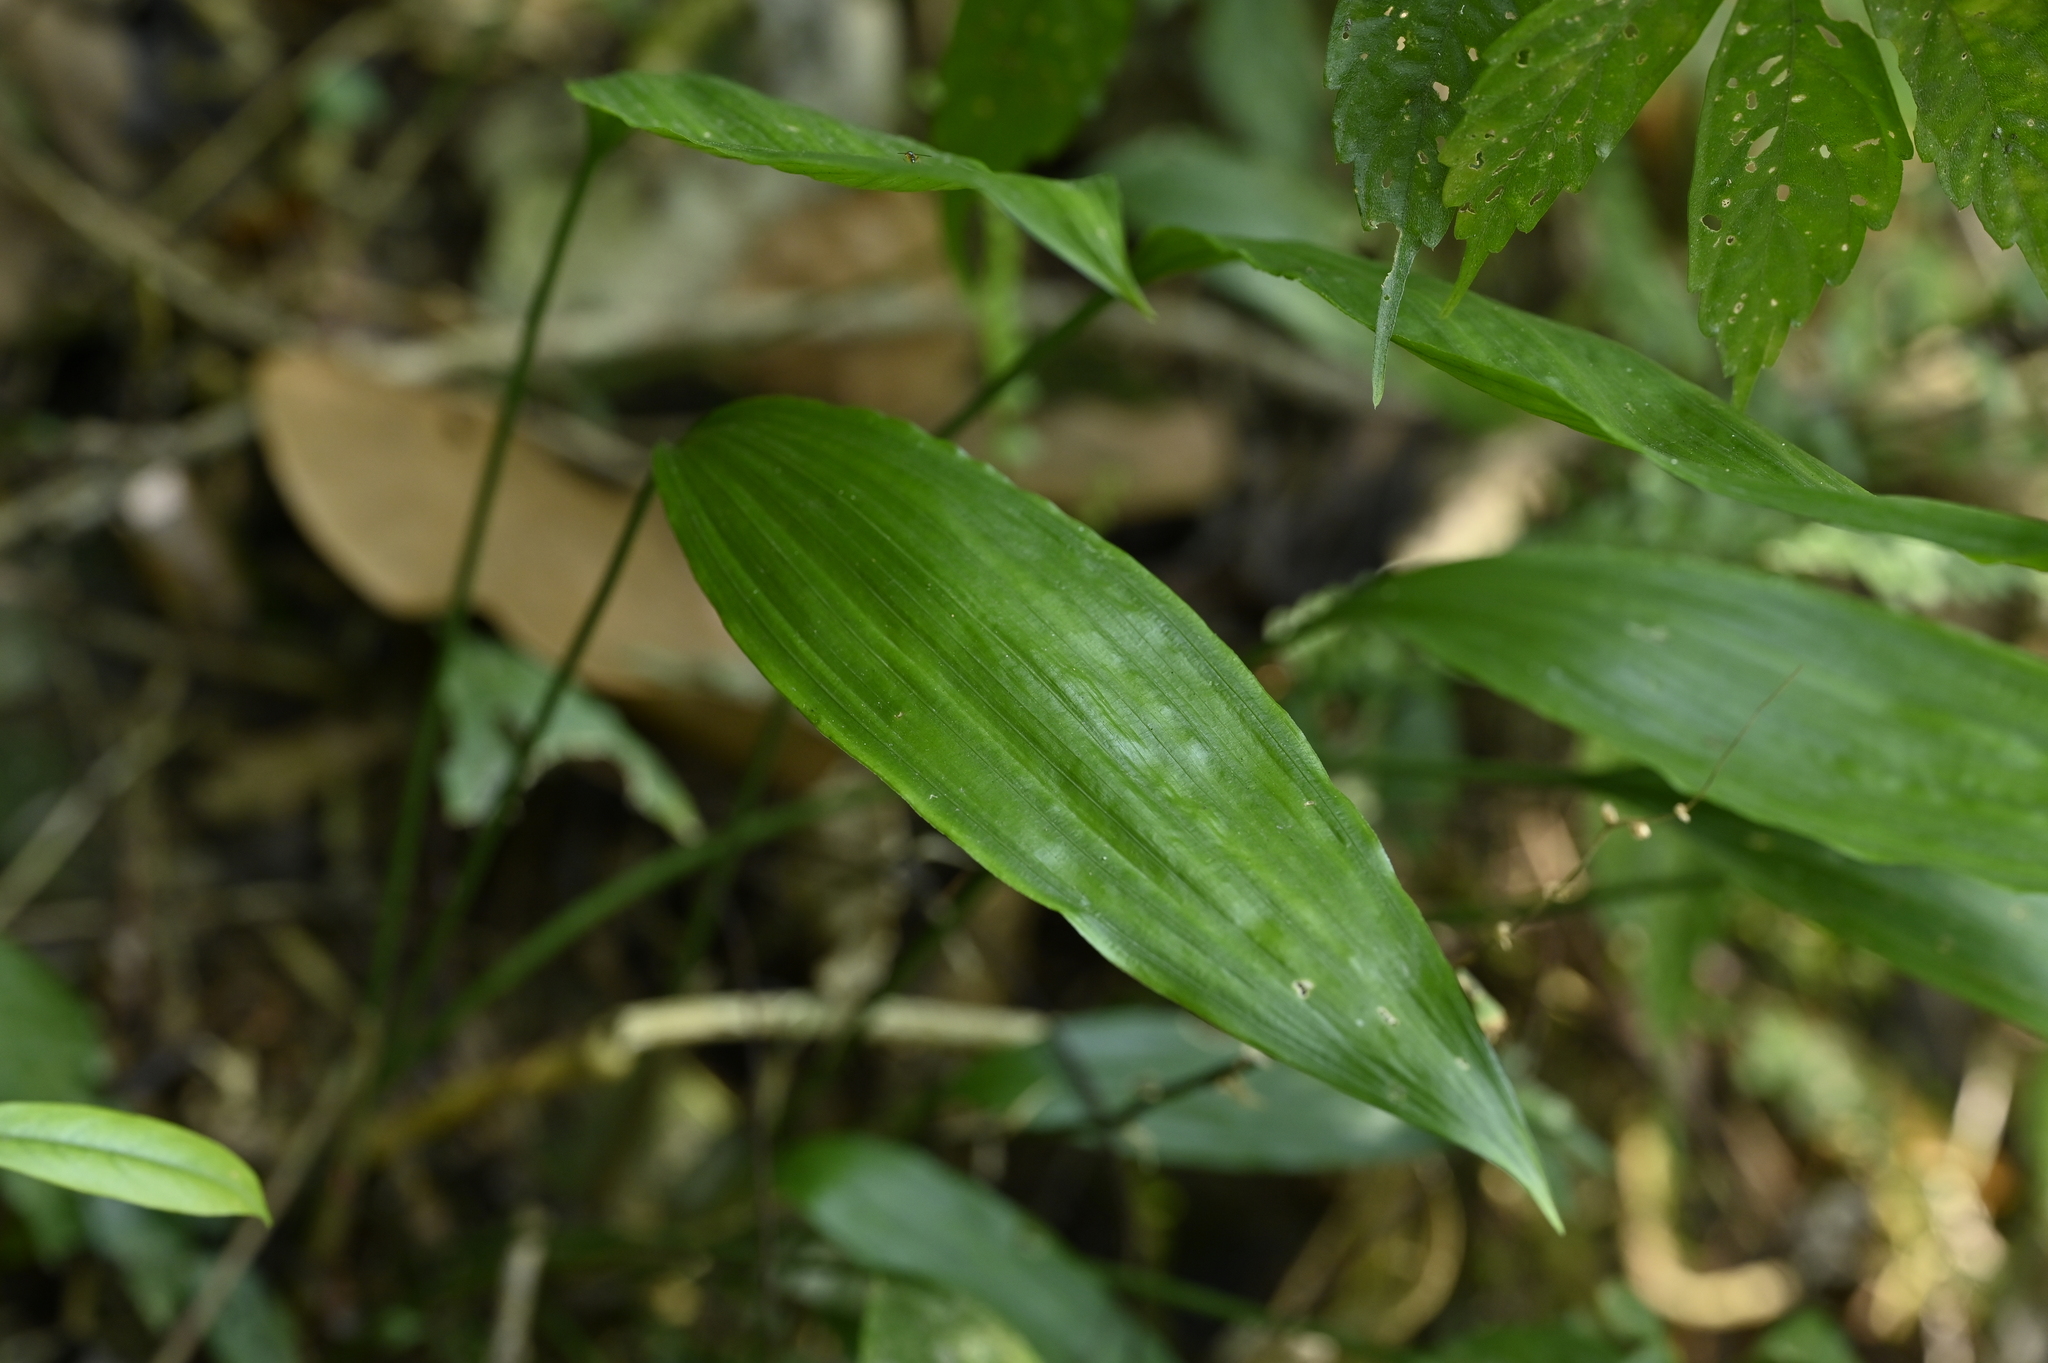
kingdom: Plantae
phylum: Tracheophyta
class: Liliopsida
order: Asparagales
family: Asparagaceae
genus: Peliosanthes
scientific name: Peliosanthes macrostegia
